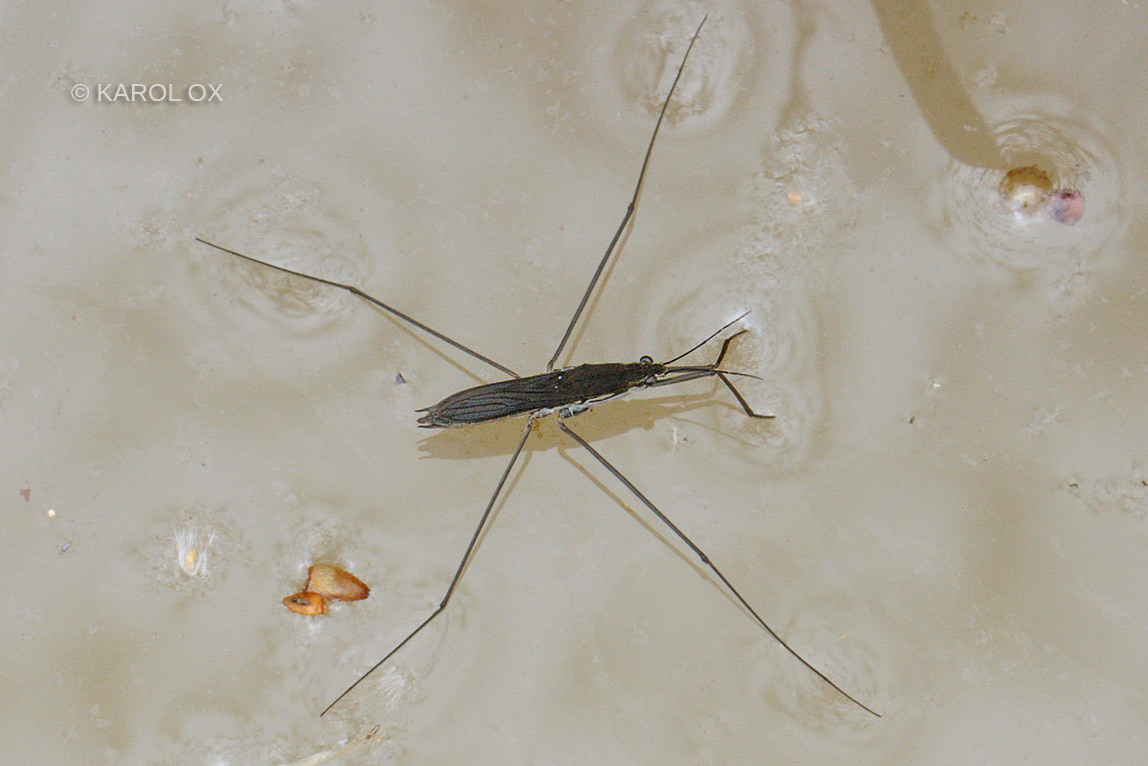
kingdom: Animalia
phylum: Arthropoda
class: Insecta
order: Hemiptera
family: Gerridae
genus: Aquarius
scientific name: Aquarius paludum
